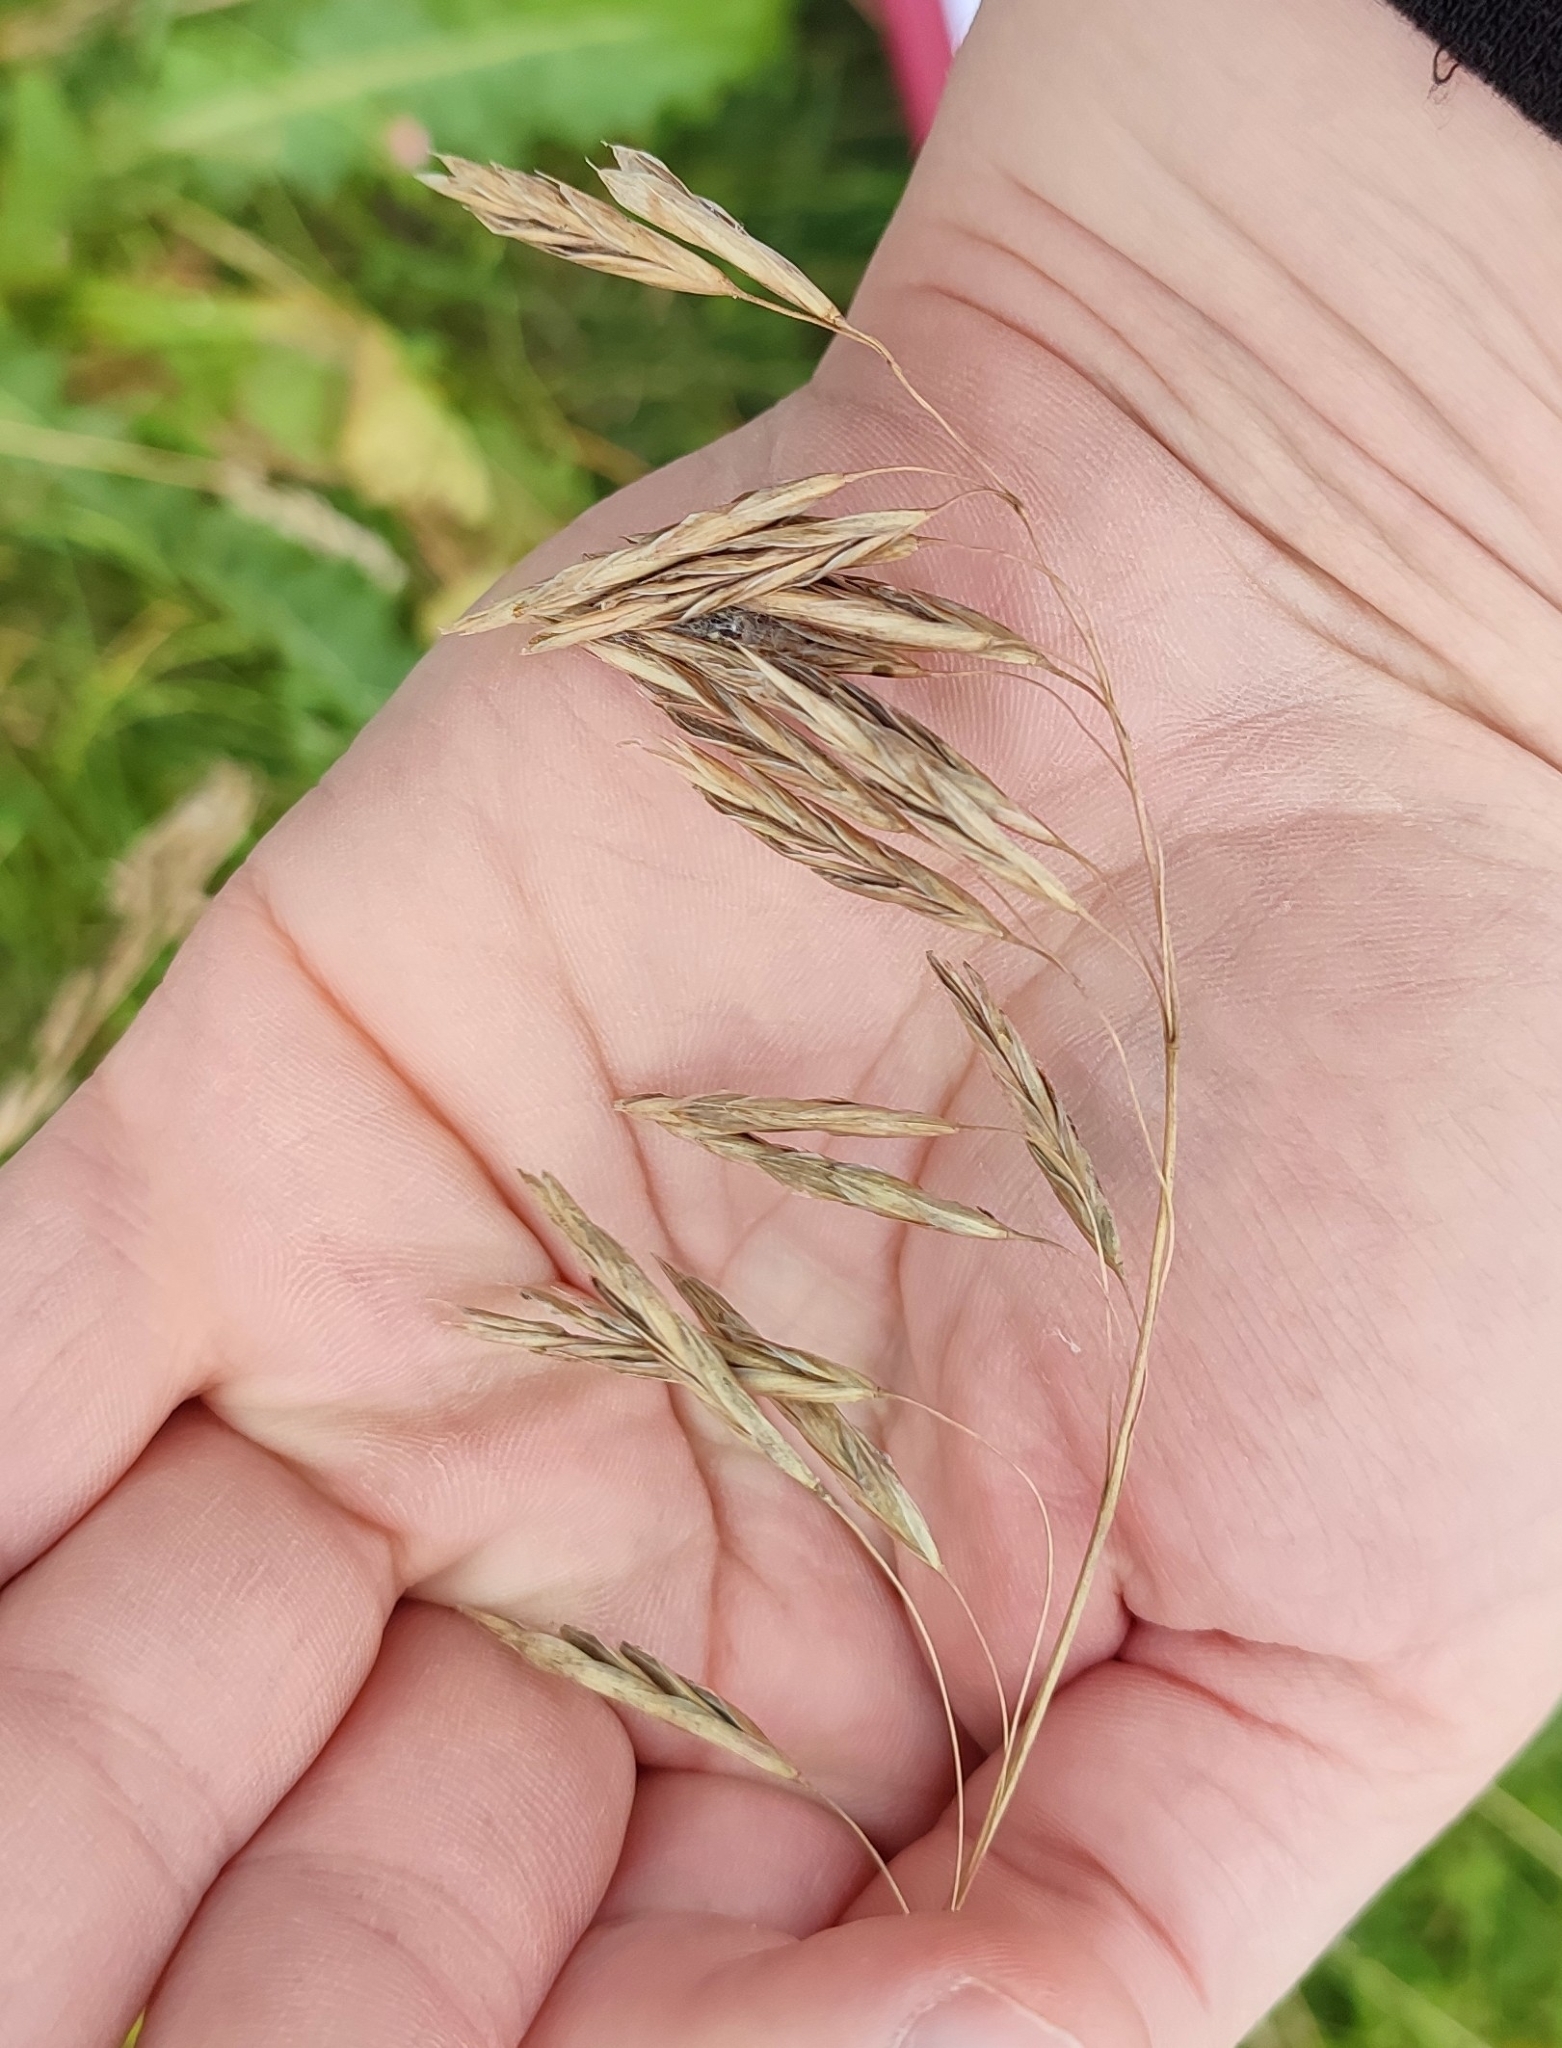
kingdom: Plantae
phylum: Tracheophyta
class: Liliopsida
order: Poales
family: Poaceae
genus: Bromus
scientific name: Bromus inermis
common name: Smooth brome
